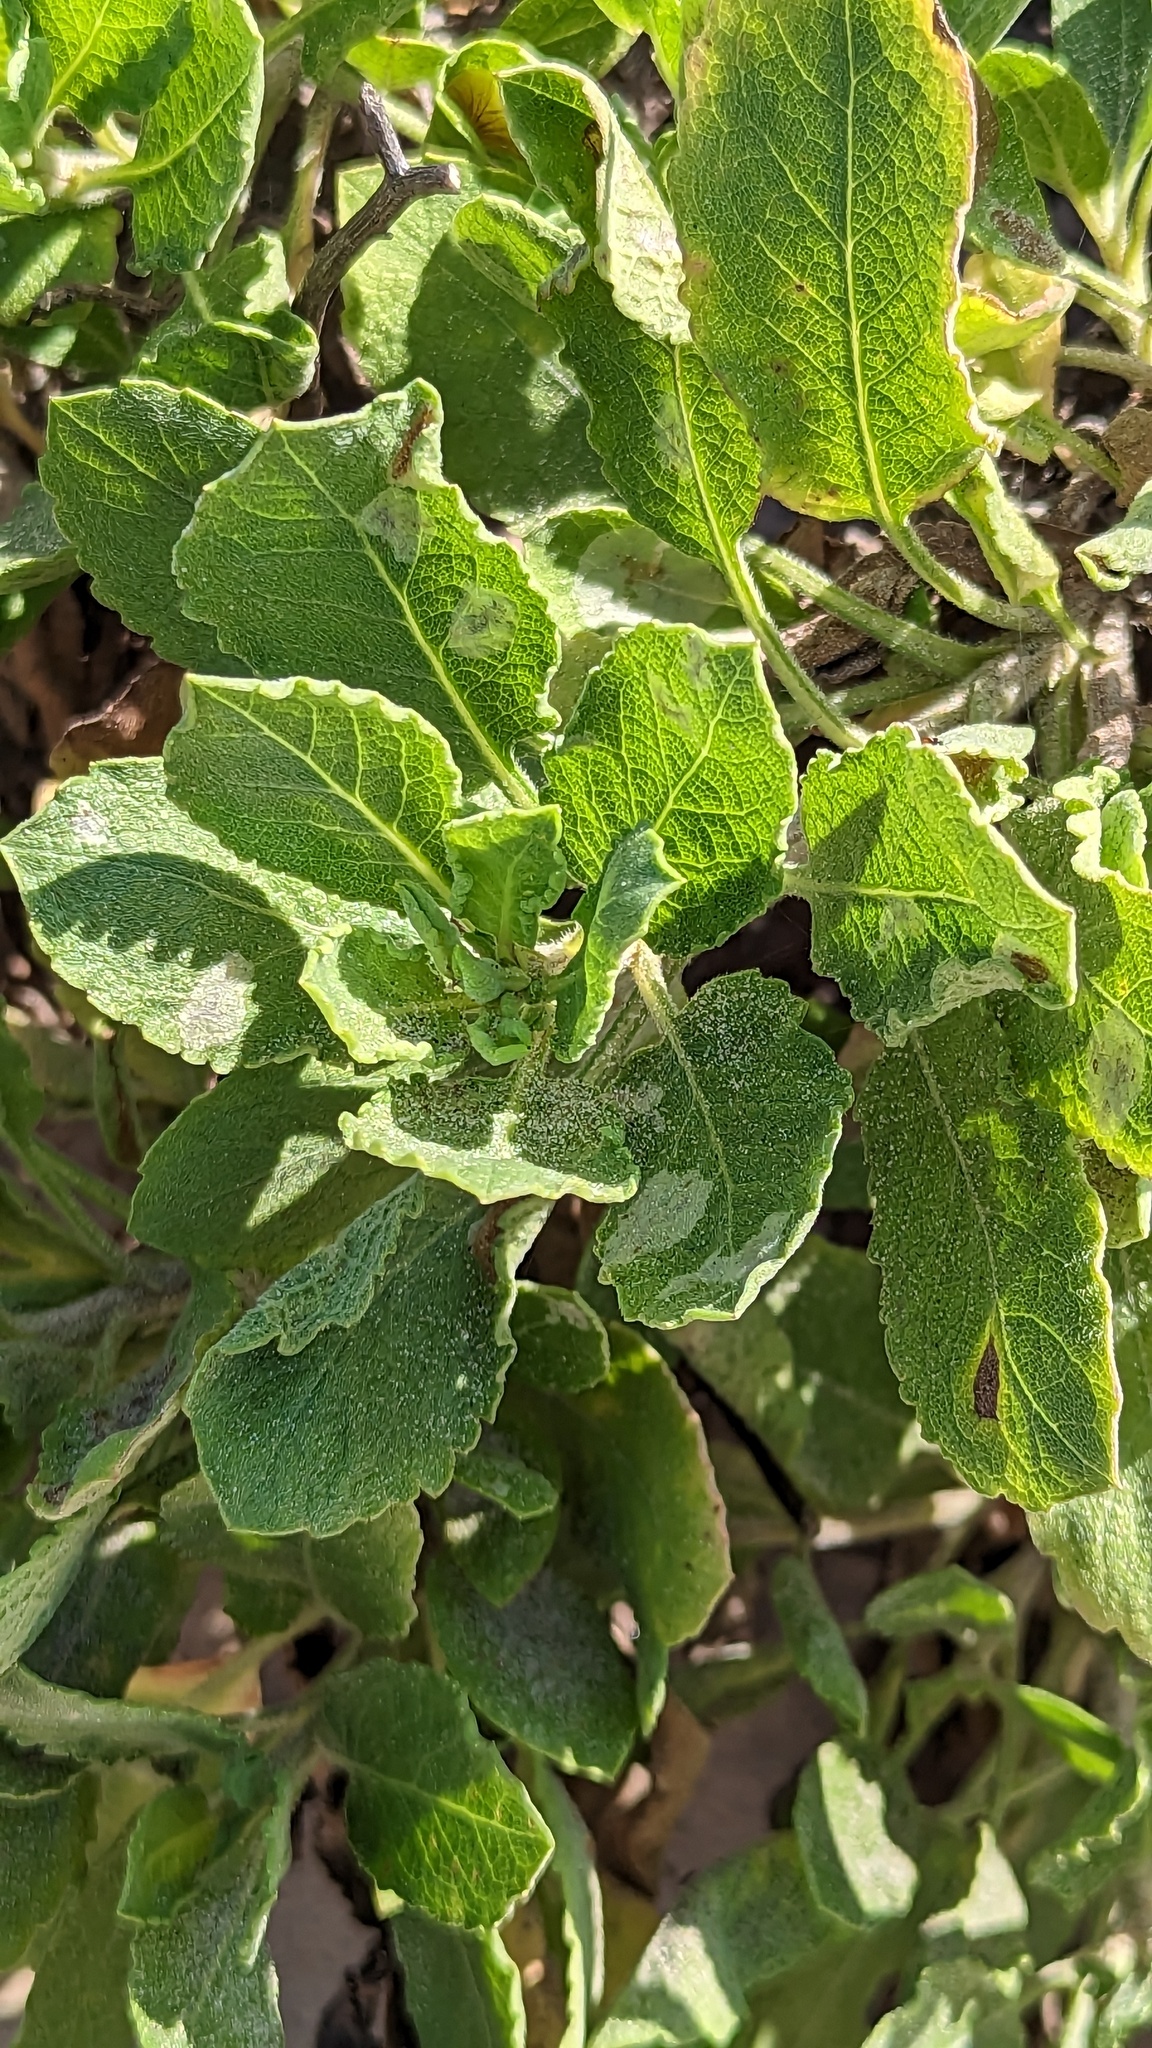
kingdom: Plantae
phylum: Tracheophyta
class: Magnoliopsida
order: Asterales
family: Asteraceae
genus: Heterotheca
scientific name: Heterotheca subaxillaris
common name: Camphorweed
